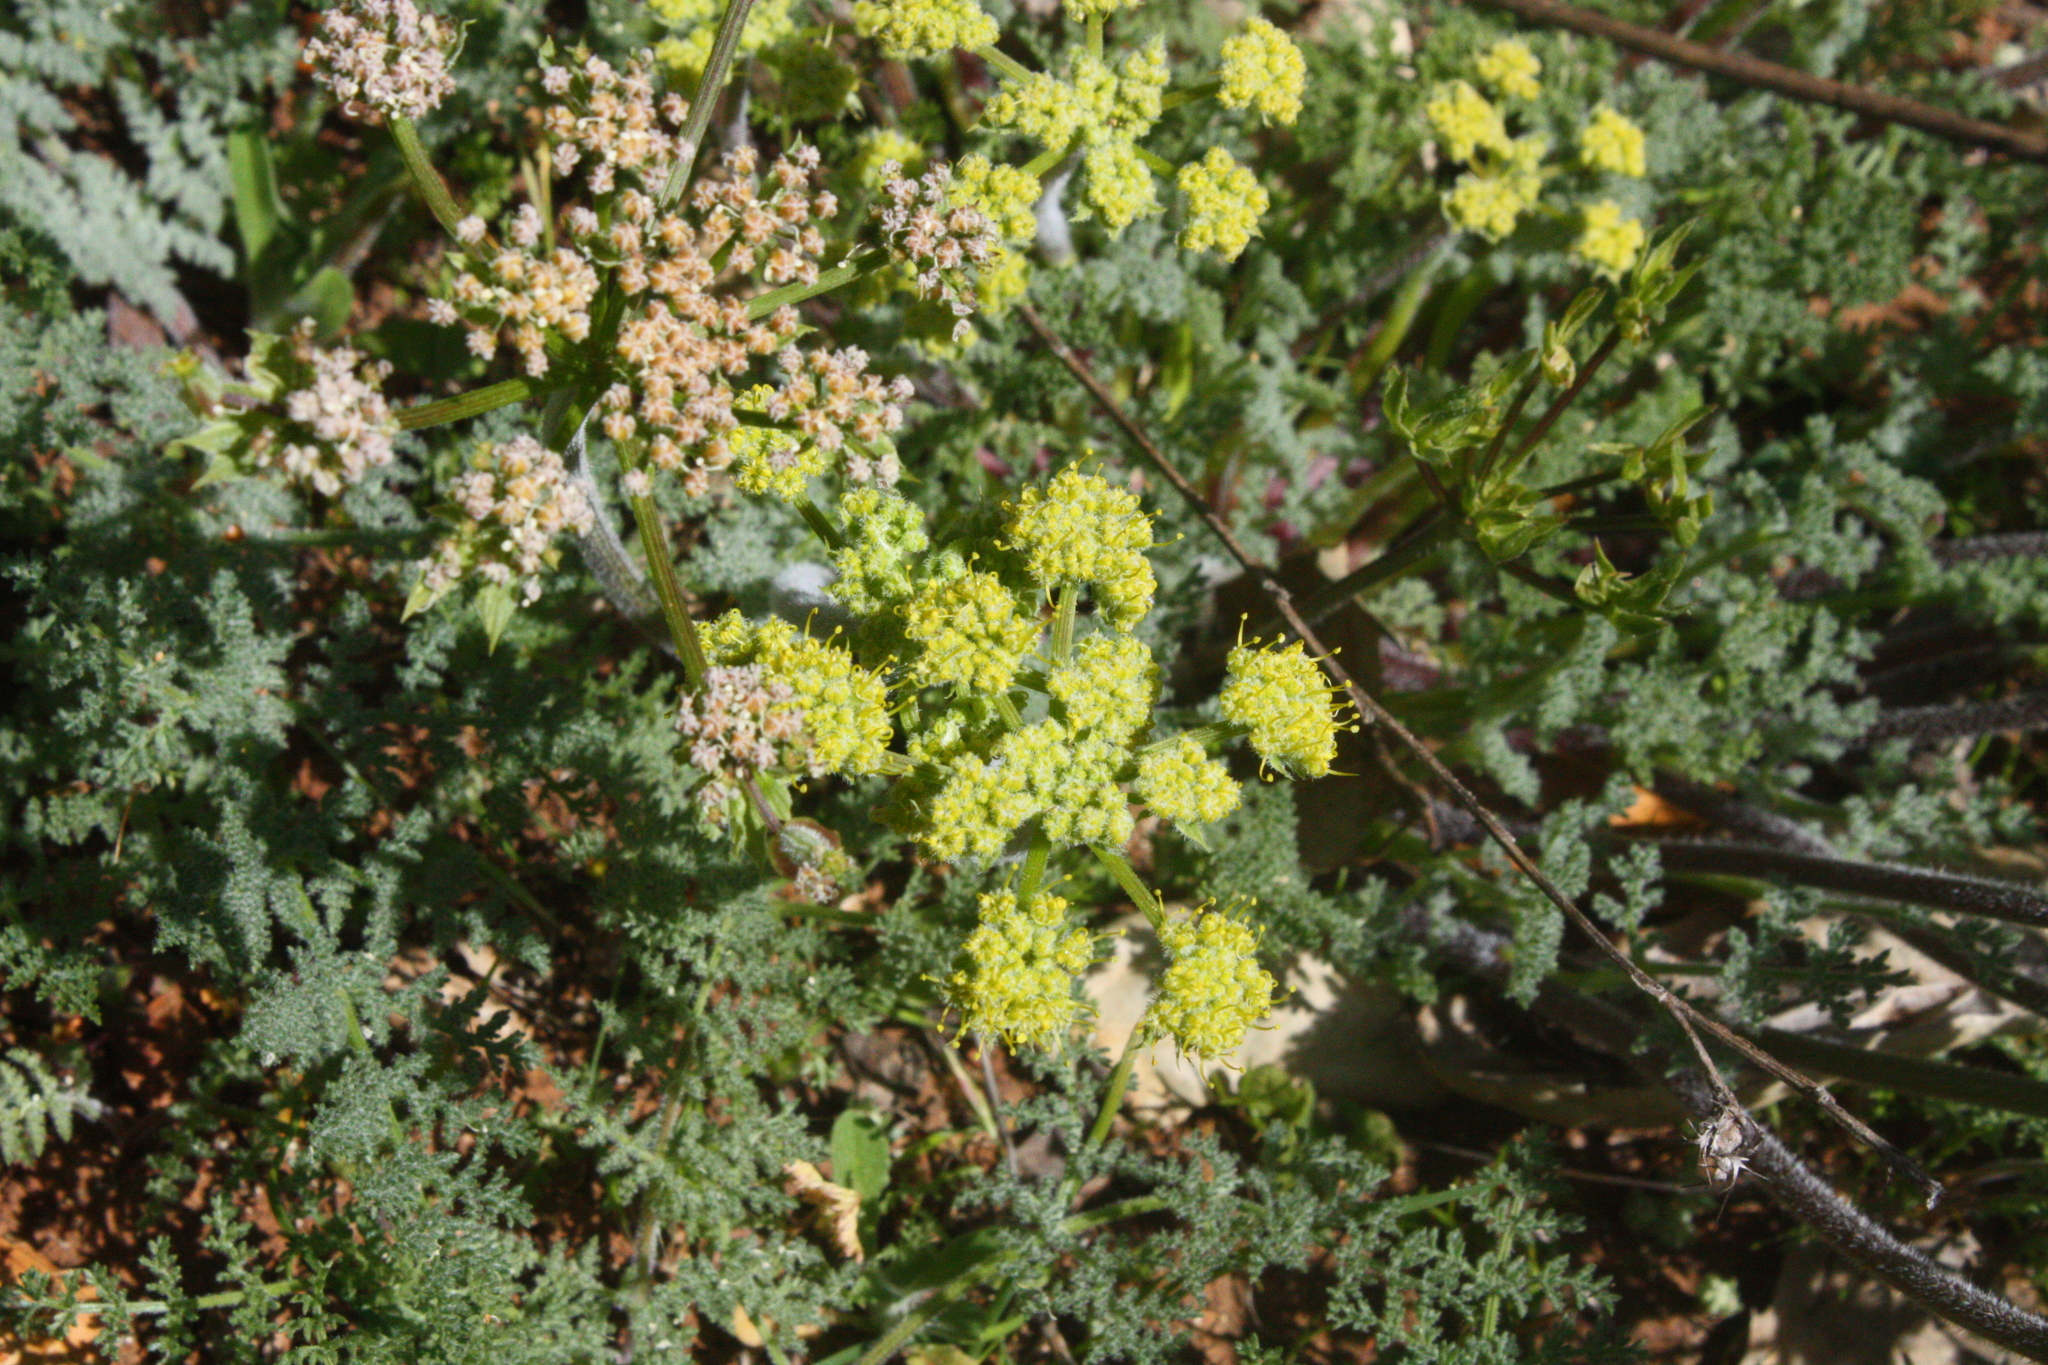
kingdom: Plantae
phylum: Tracheophyta
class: Magnoliopsida
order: Apiales
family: Apiaceae
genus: Lomatium
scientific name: Lomatium dasycarpum
